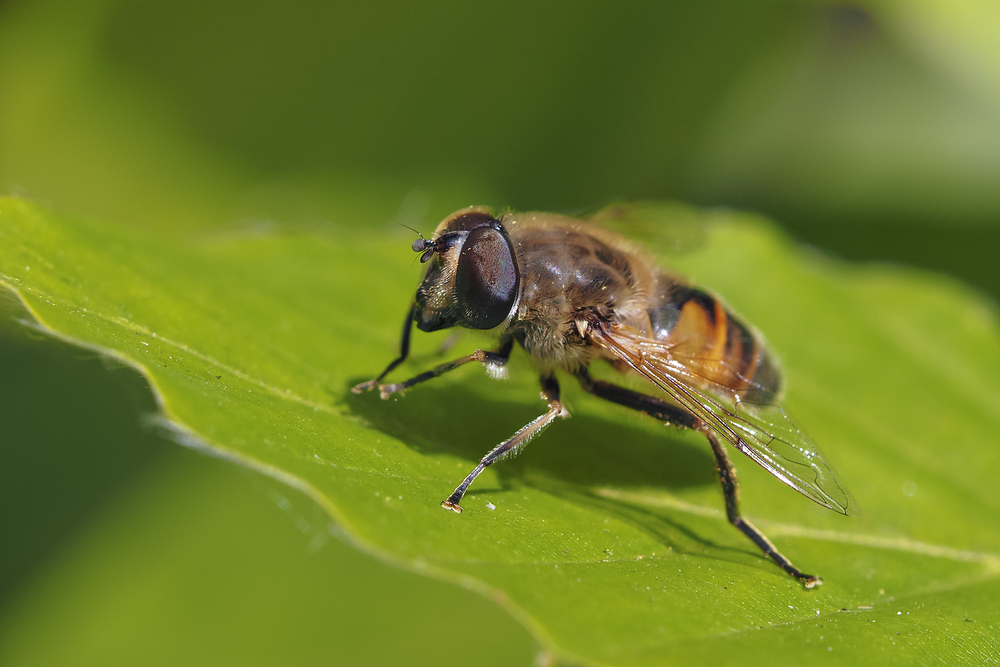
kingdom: Animalia
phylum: Arthropoda
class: Insecta
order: Diptera
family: Syrphidae
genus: Eristalis
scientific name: Eristalis tenax
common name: Drone fly
